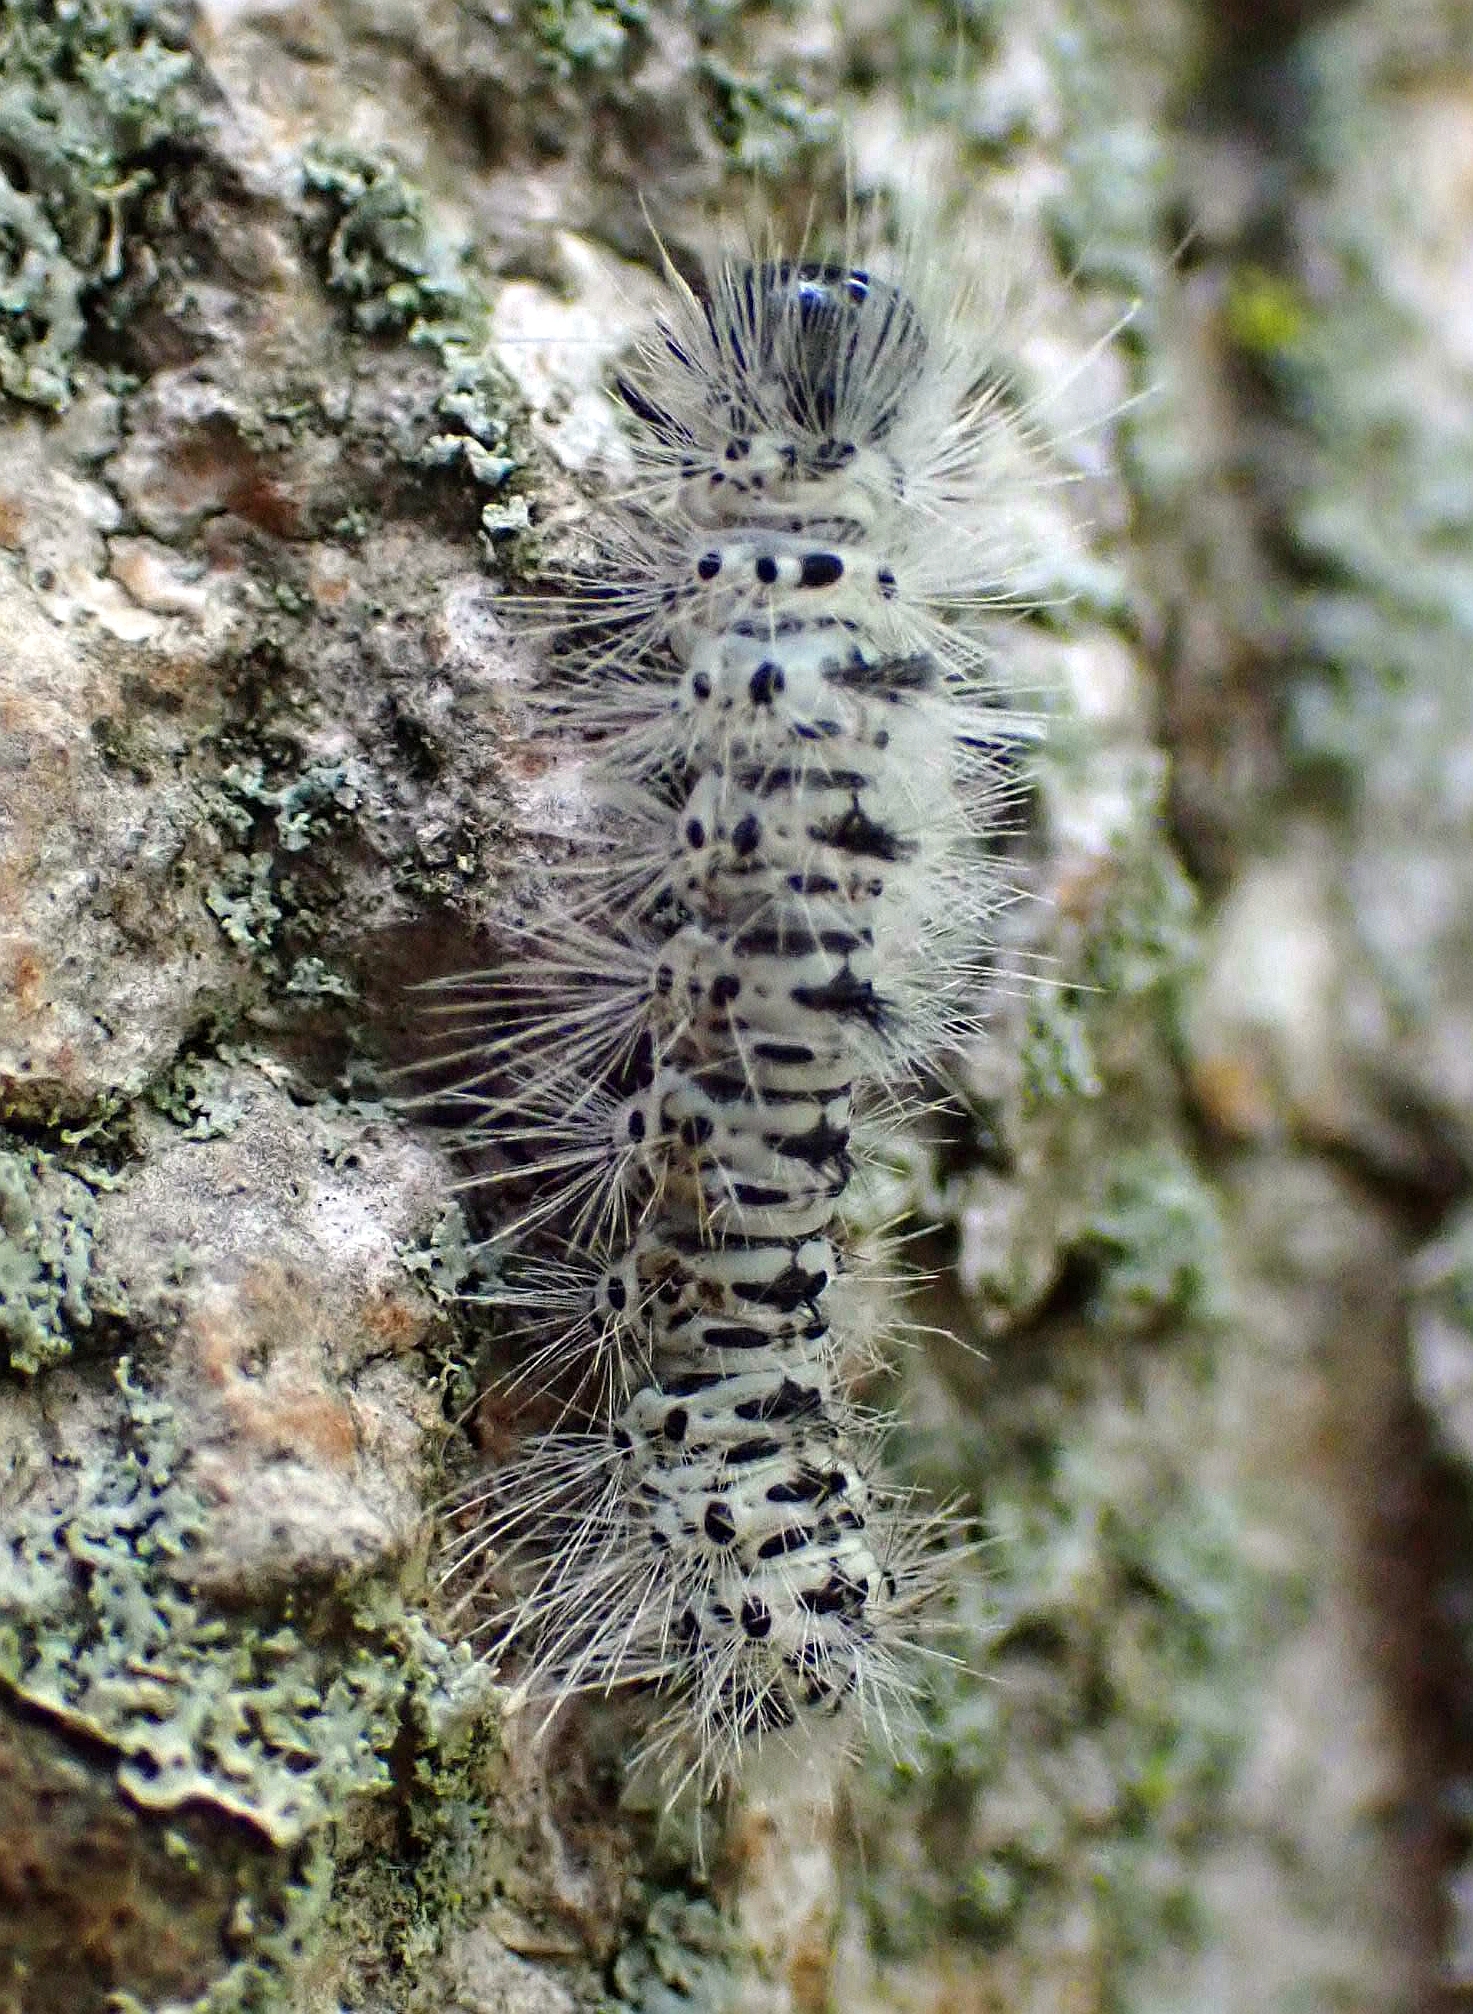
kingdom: Animalia
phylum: Arthropoda
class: Insecta
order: Lepidoptera
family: Erebidae
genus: Lophocampa
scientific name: Lophocampa caryae
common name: Hickory tussock moth
